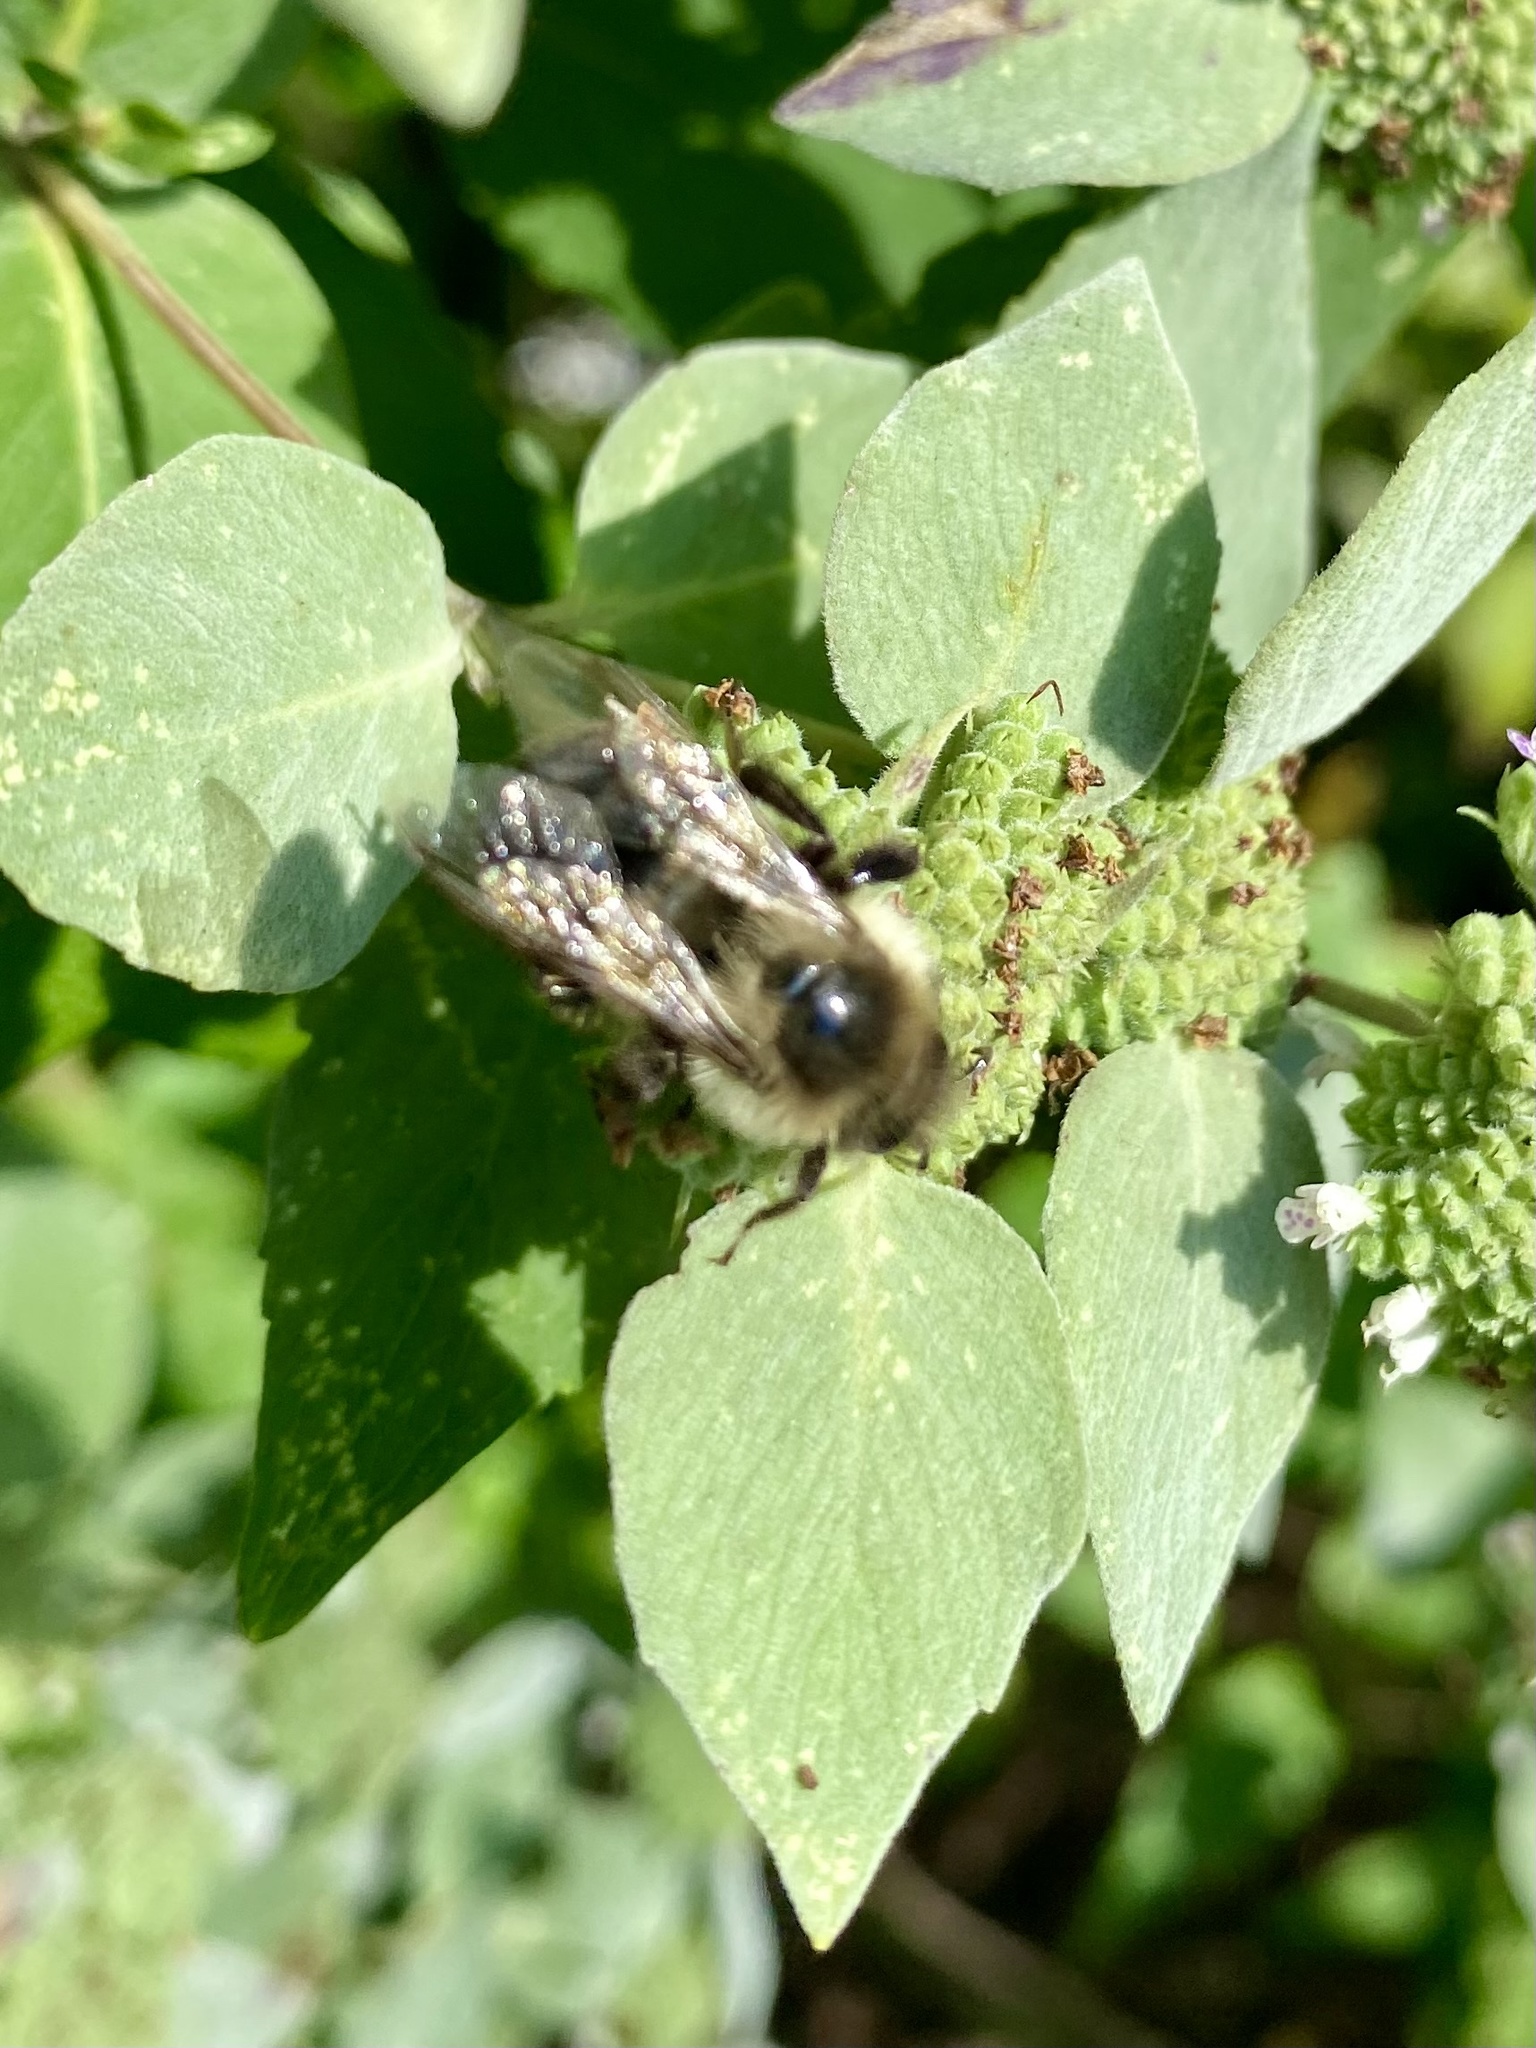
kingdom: Animalia
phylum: Arthropoda
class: Insecta
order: Hymenoptera
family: Apidae
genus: Bombus
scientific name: Bombus impatiens
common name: Common eastern bumble bee
